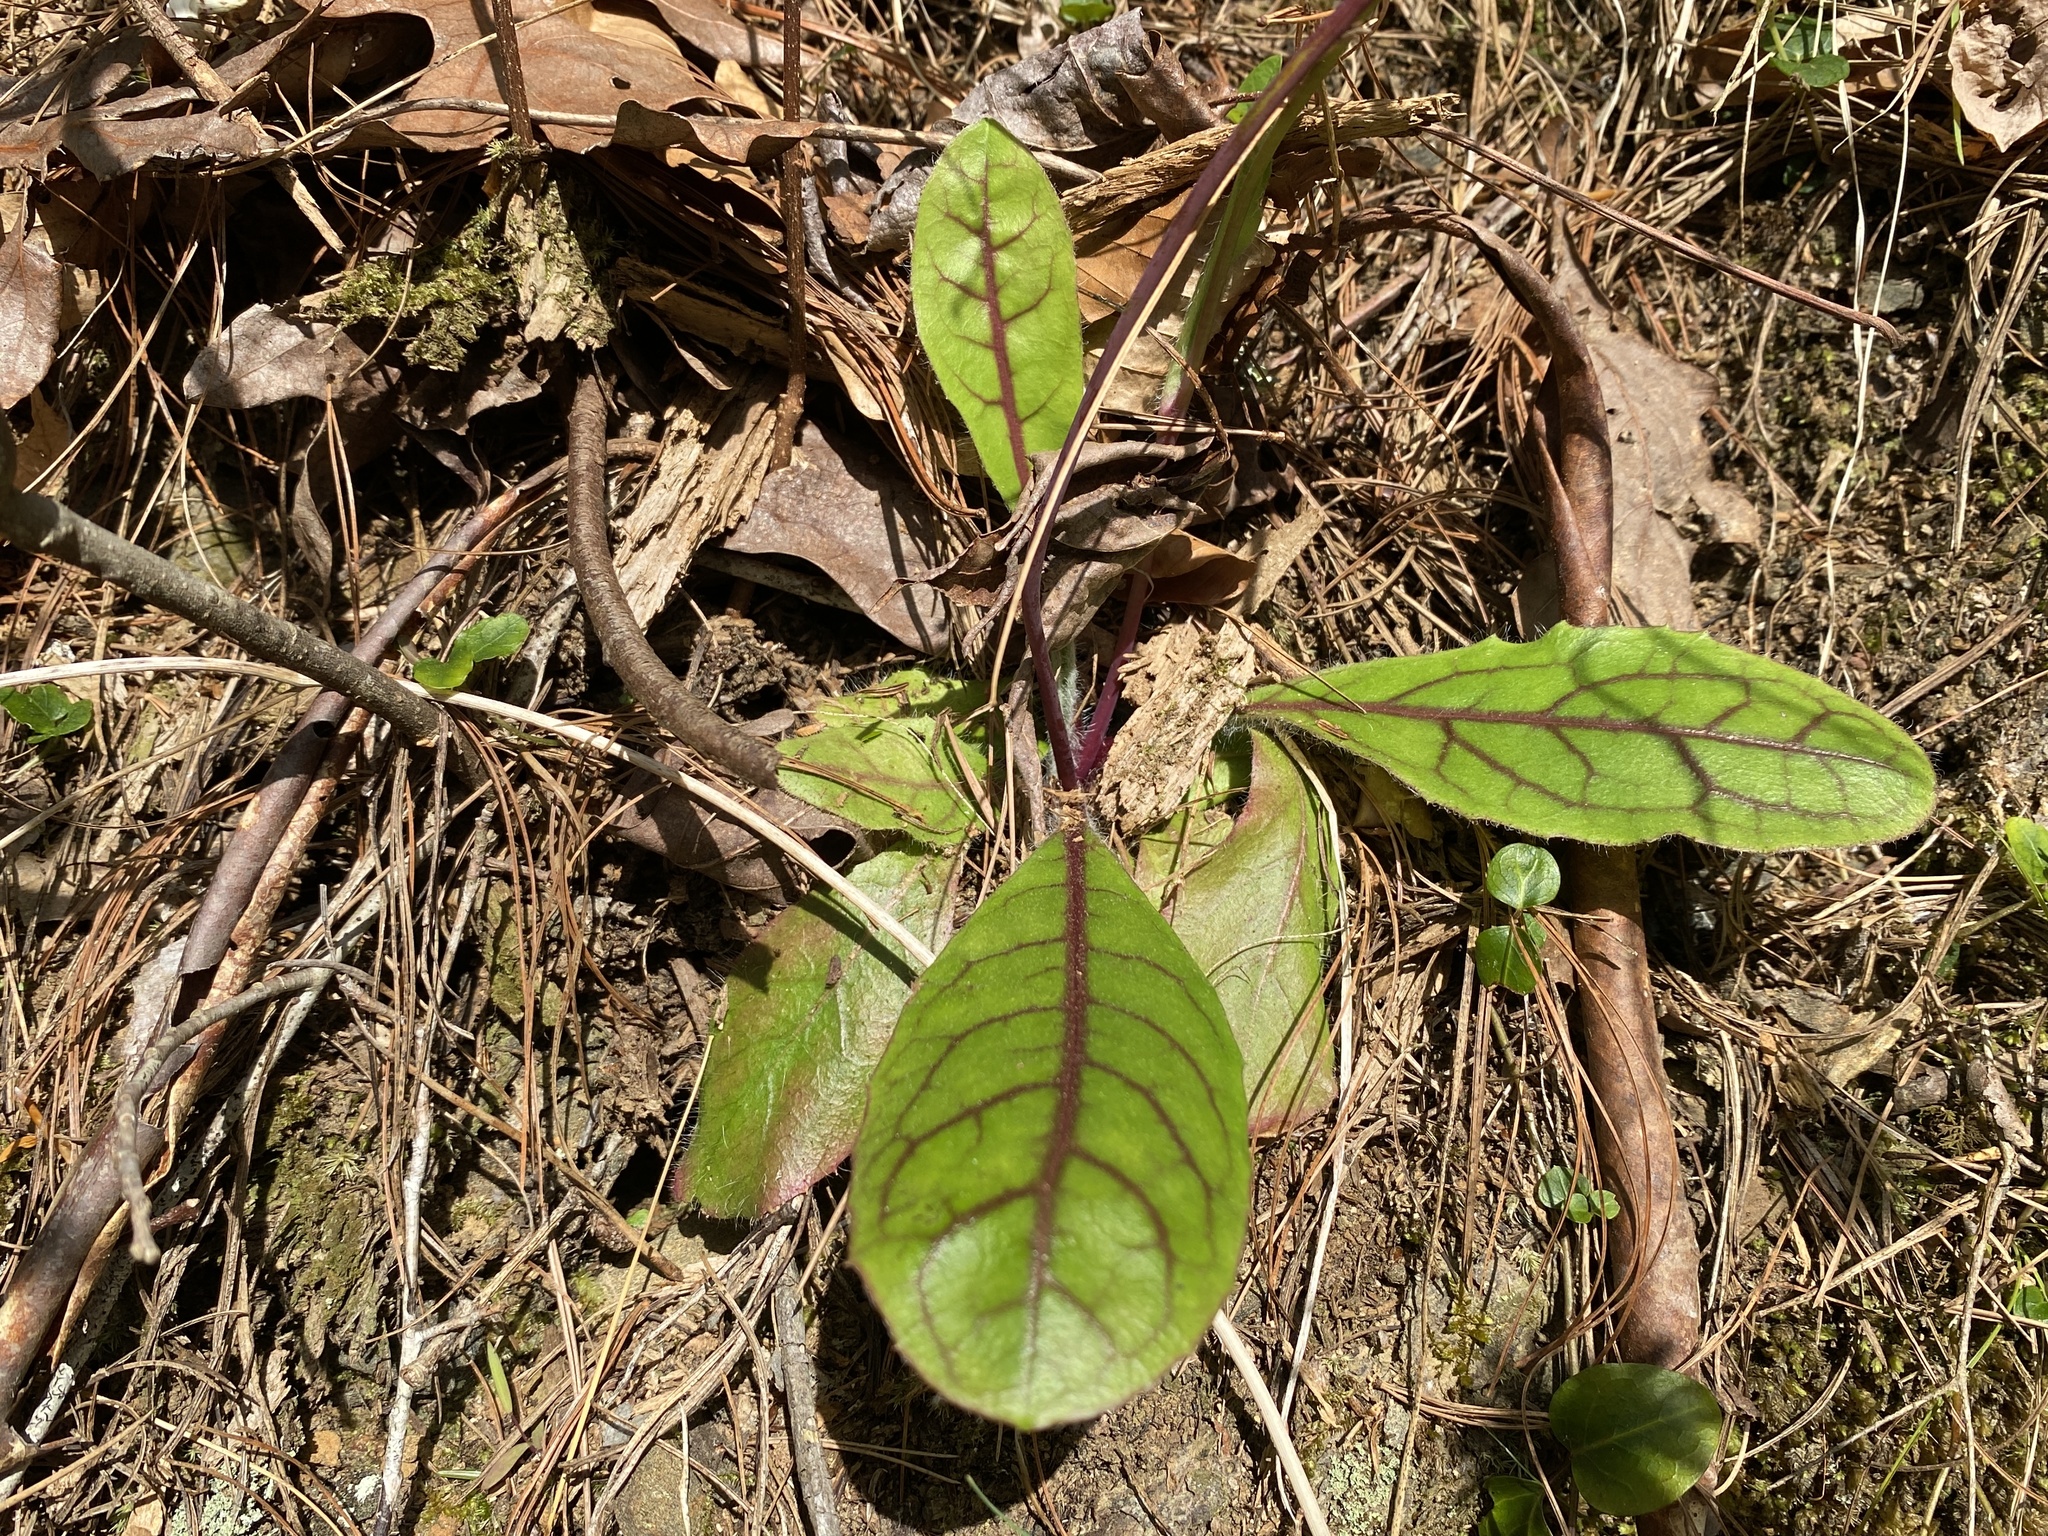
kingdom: Plantae
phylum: Tracheophyta
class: Magnoliopsida
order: Asterales
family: Asteraceae
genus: Hieracium
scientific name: Hieracium venosum
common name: Rattlesnake hawkweed
